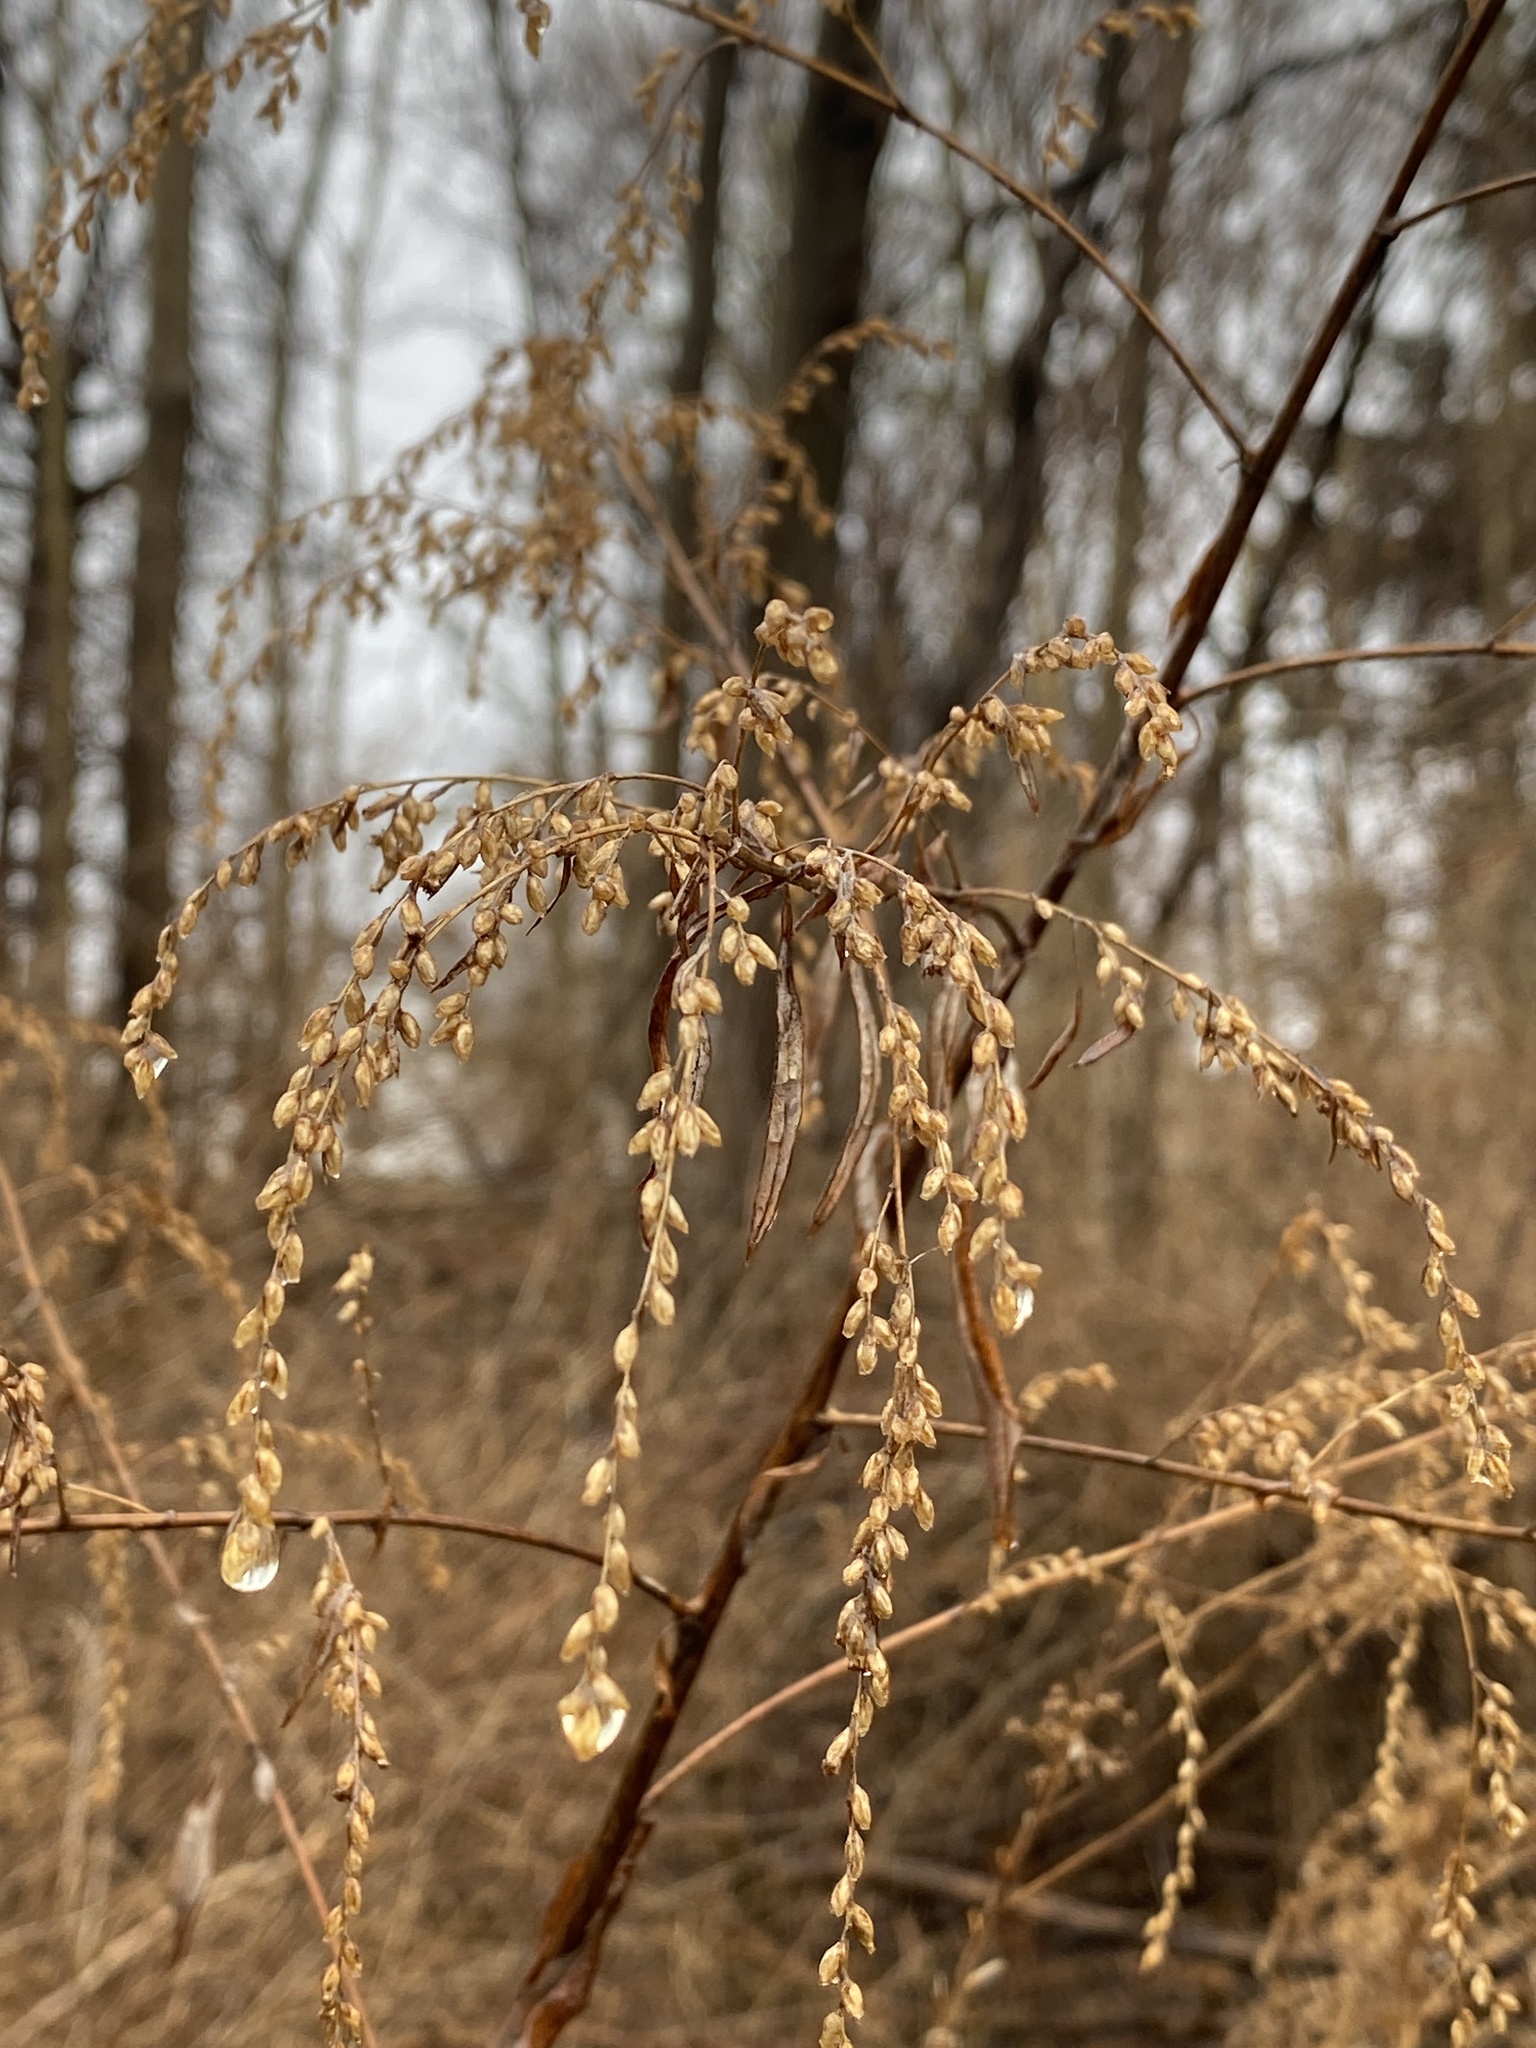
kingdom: Plantae
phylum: Tracheophyta
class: Magnoliopsida
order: Asterales
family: Asteraceae
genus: Artemisia
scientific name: Artemisia vulgaris
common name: Mugwort
